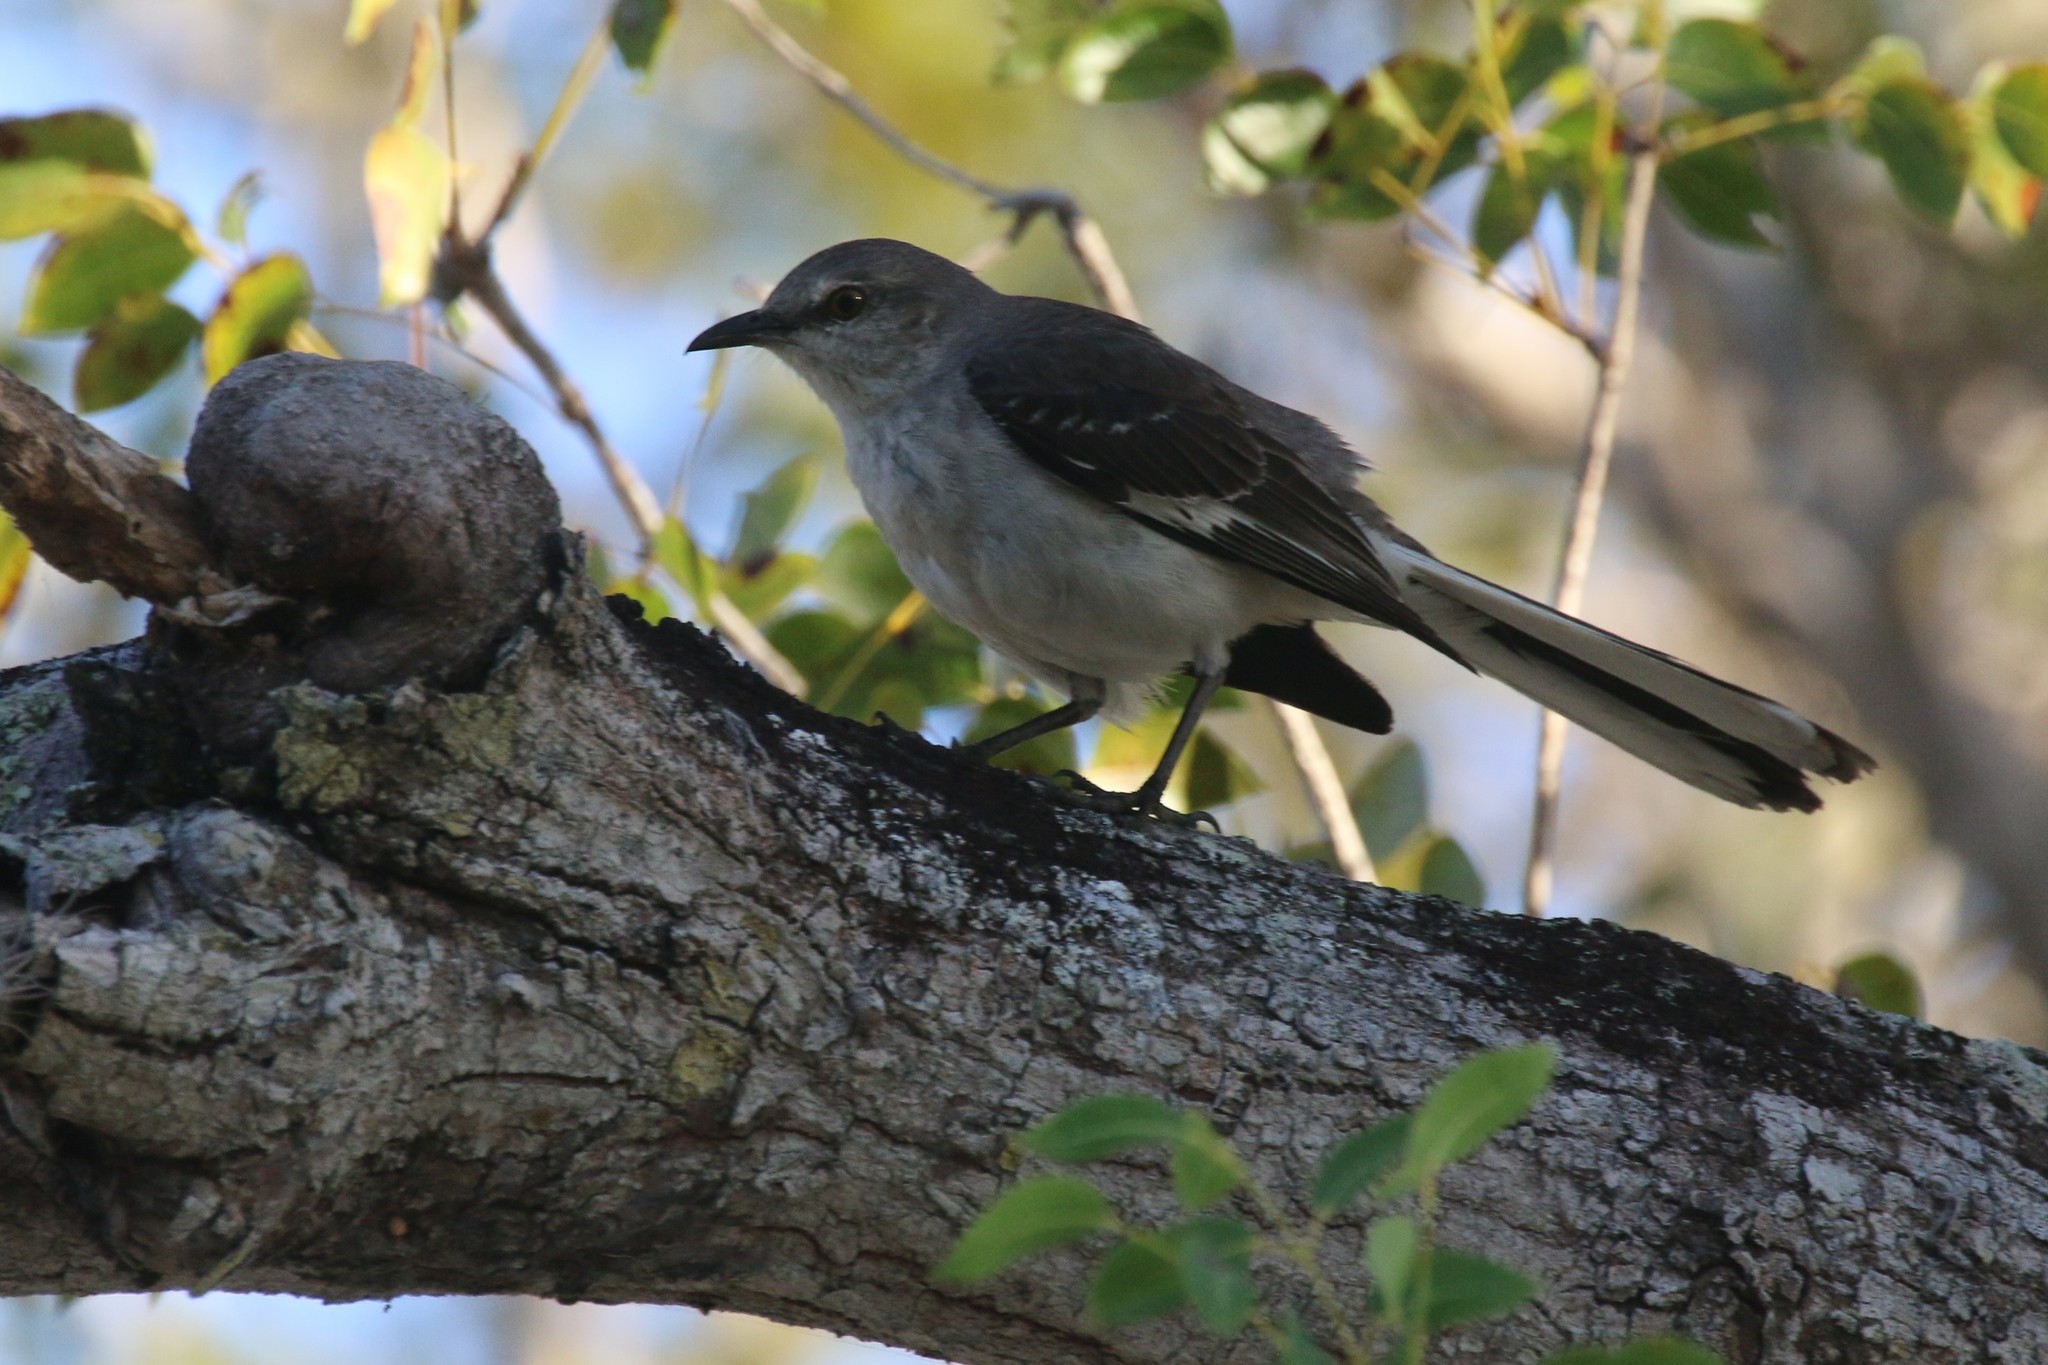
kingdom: Animalia
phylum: Chordata
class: Aves
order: Passeriformes
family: Mimidae
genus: Mimus
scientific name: Mimus polyglottos
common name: Northern mockingbird
